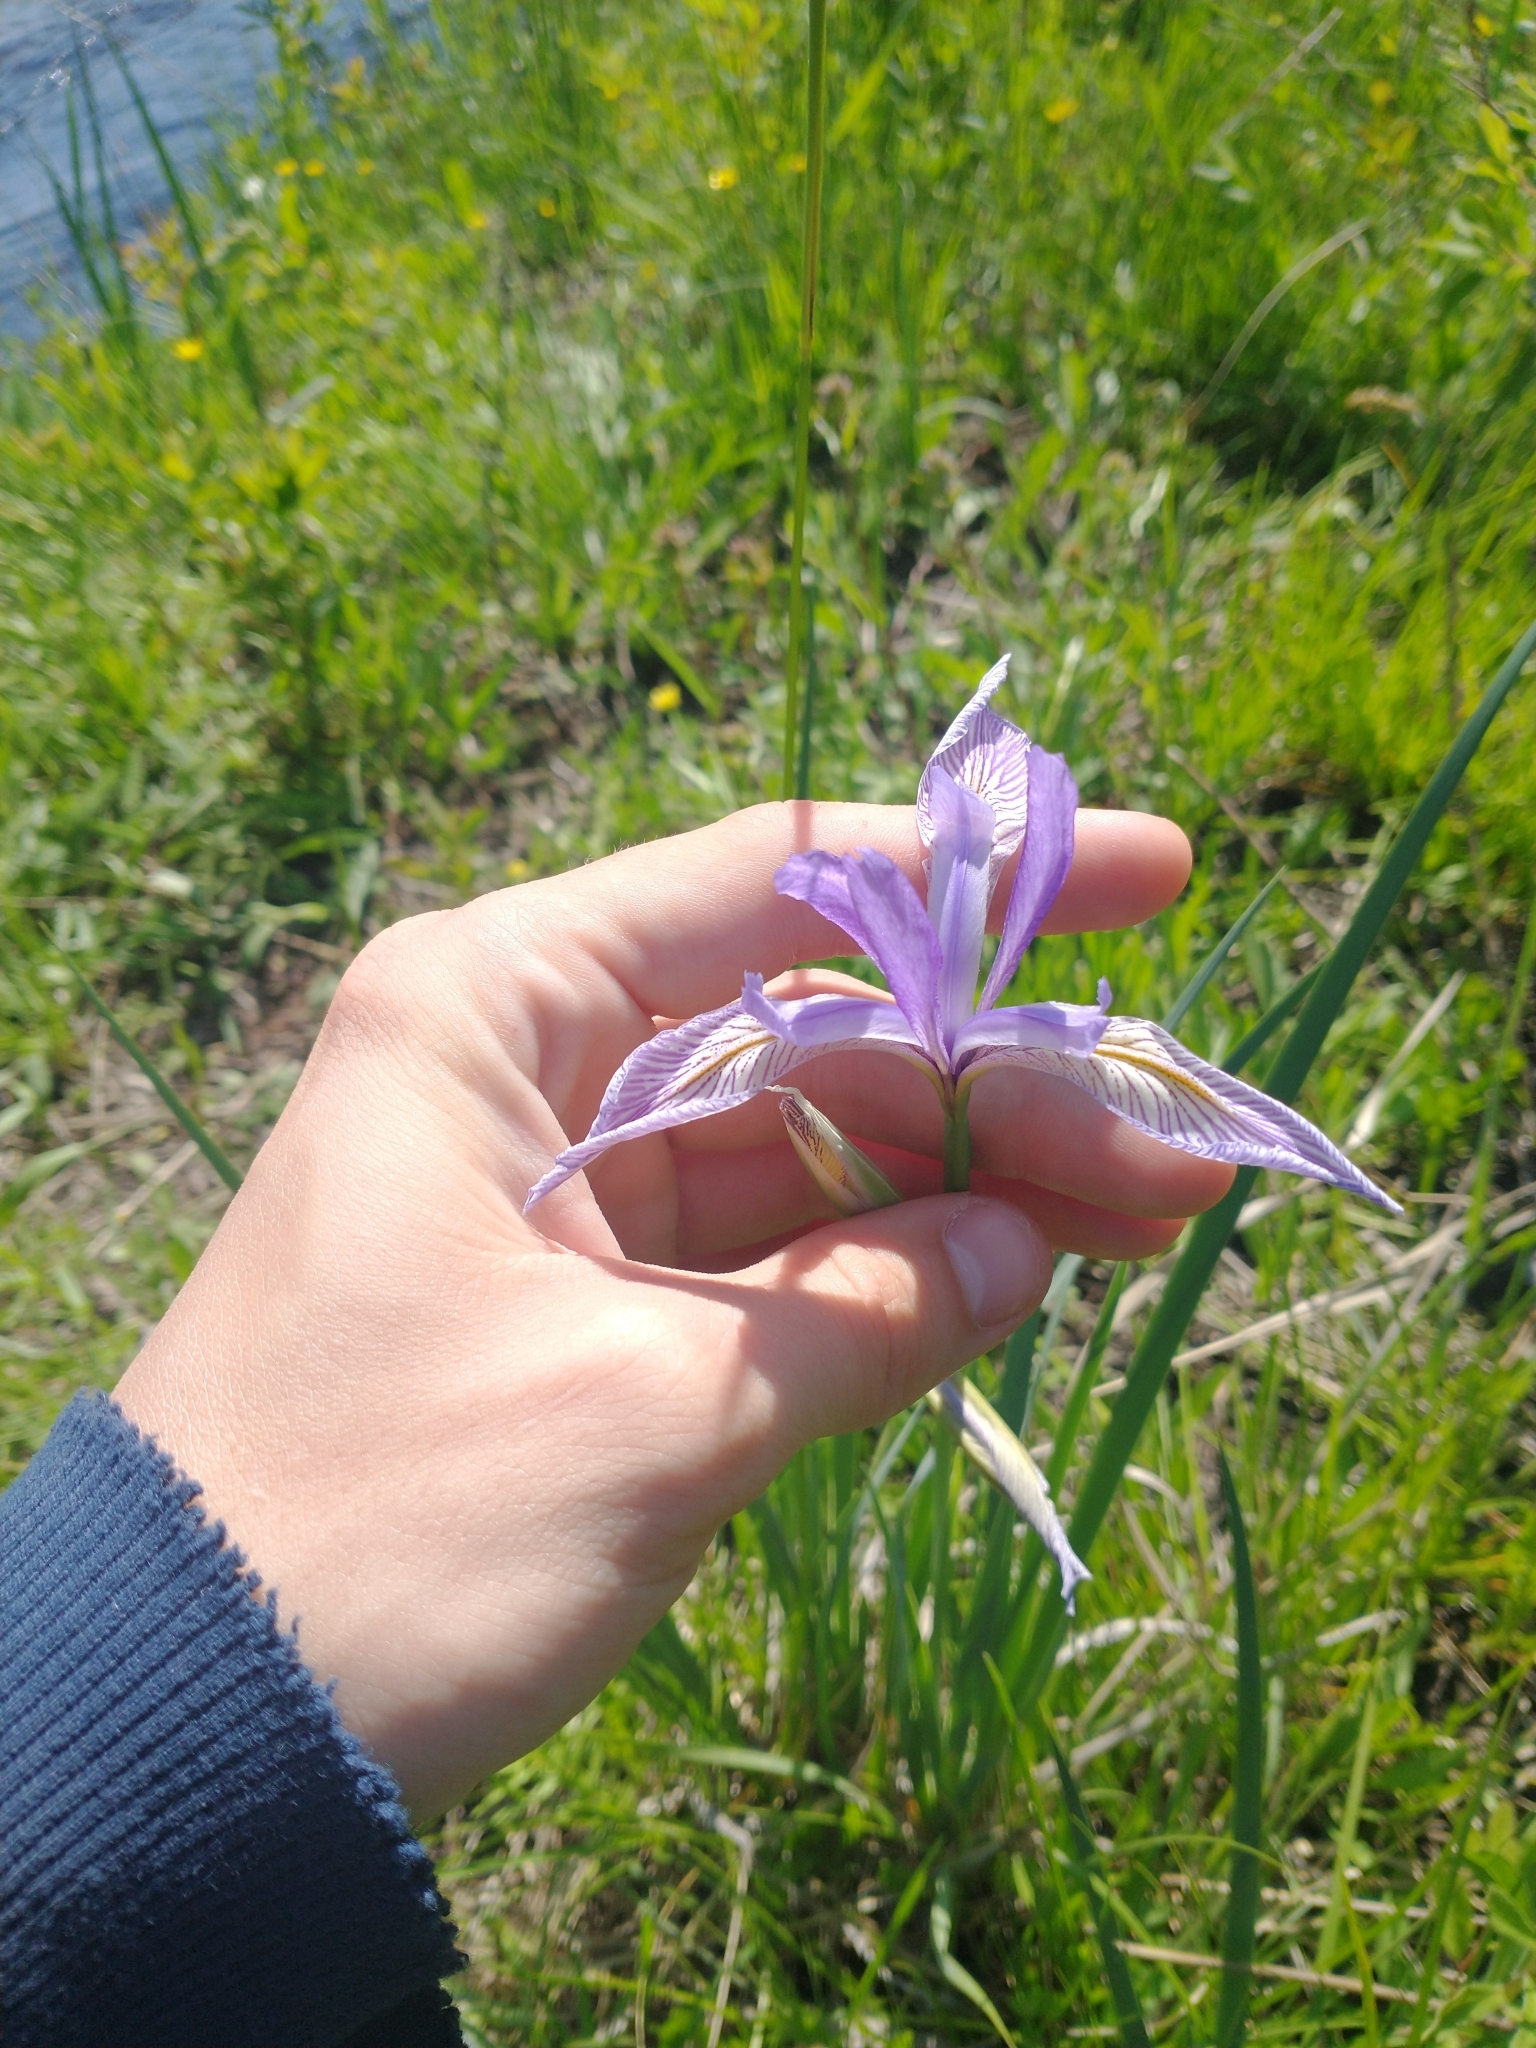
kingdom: Plantae
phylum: Tracheophyta
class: Liliopsida
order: Asparagales
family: Iridaceae
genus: Iris
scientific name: Iris missouriensis
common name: Rocky mountain iris
